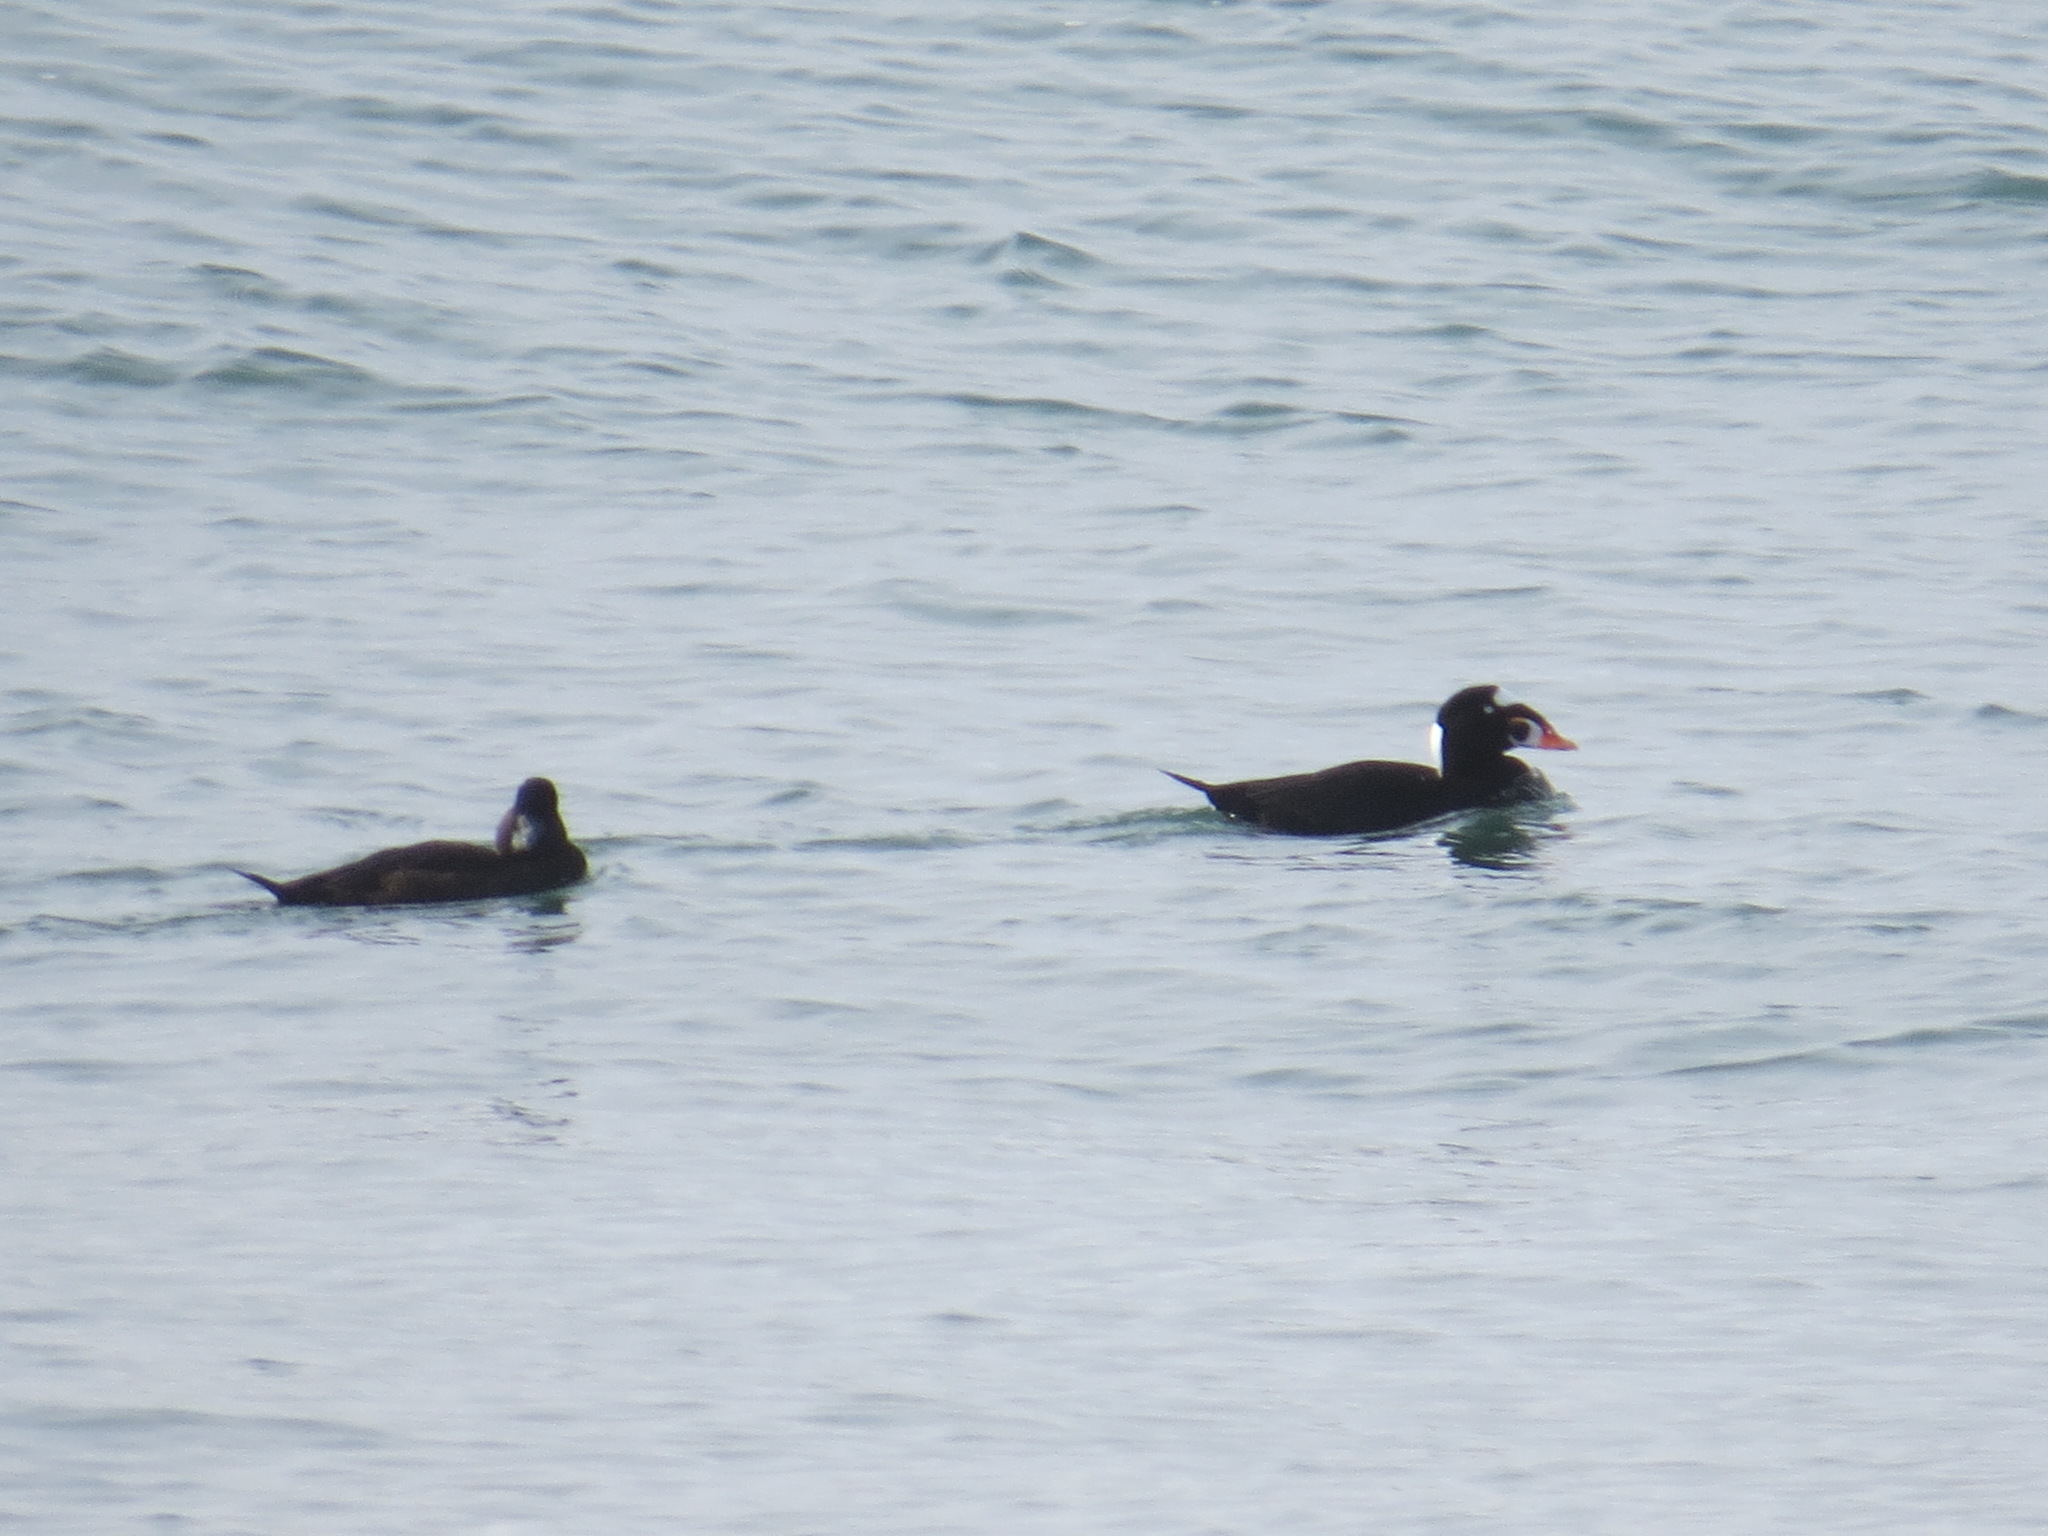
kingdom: Animalia
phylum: Chordata
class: Aves
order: Anseriformes
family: Anatidae
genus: Melanitta
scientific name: Melanitta perspicillata
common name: Surf scoter
